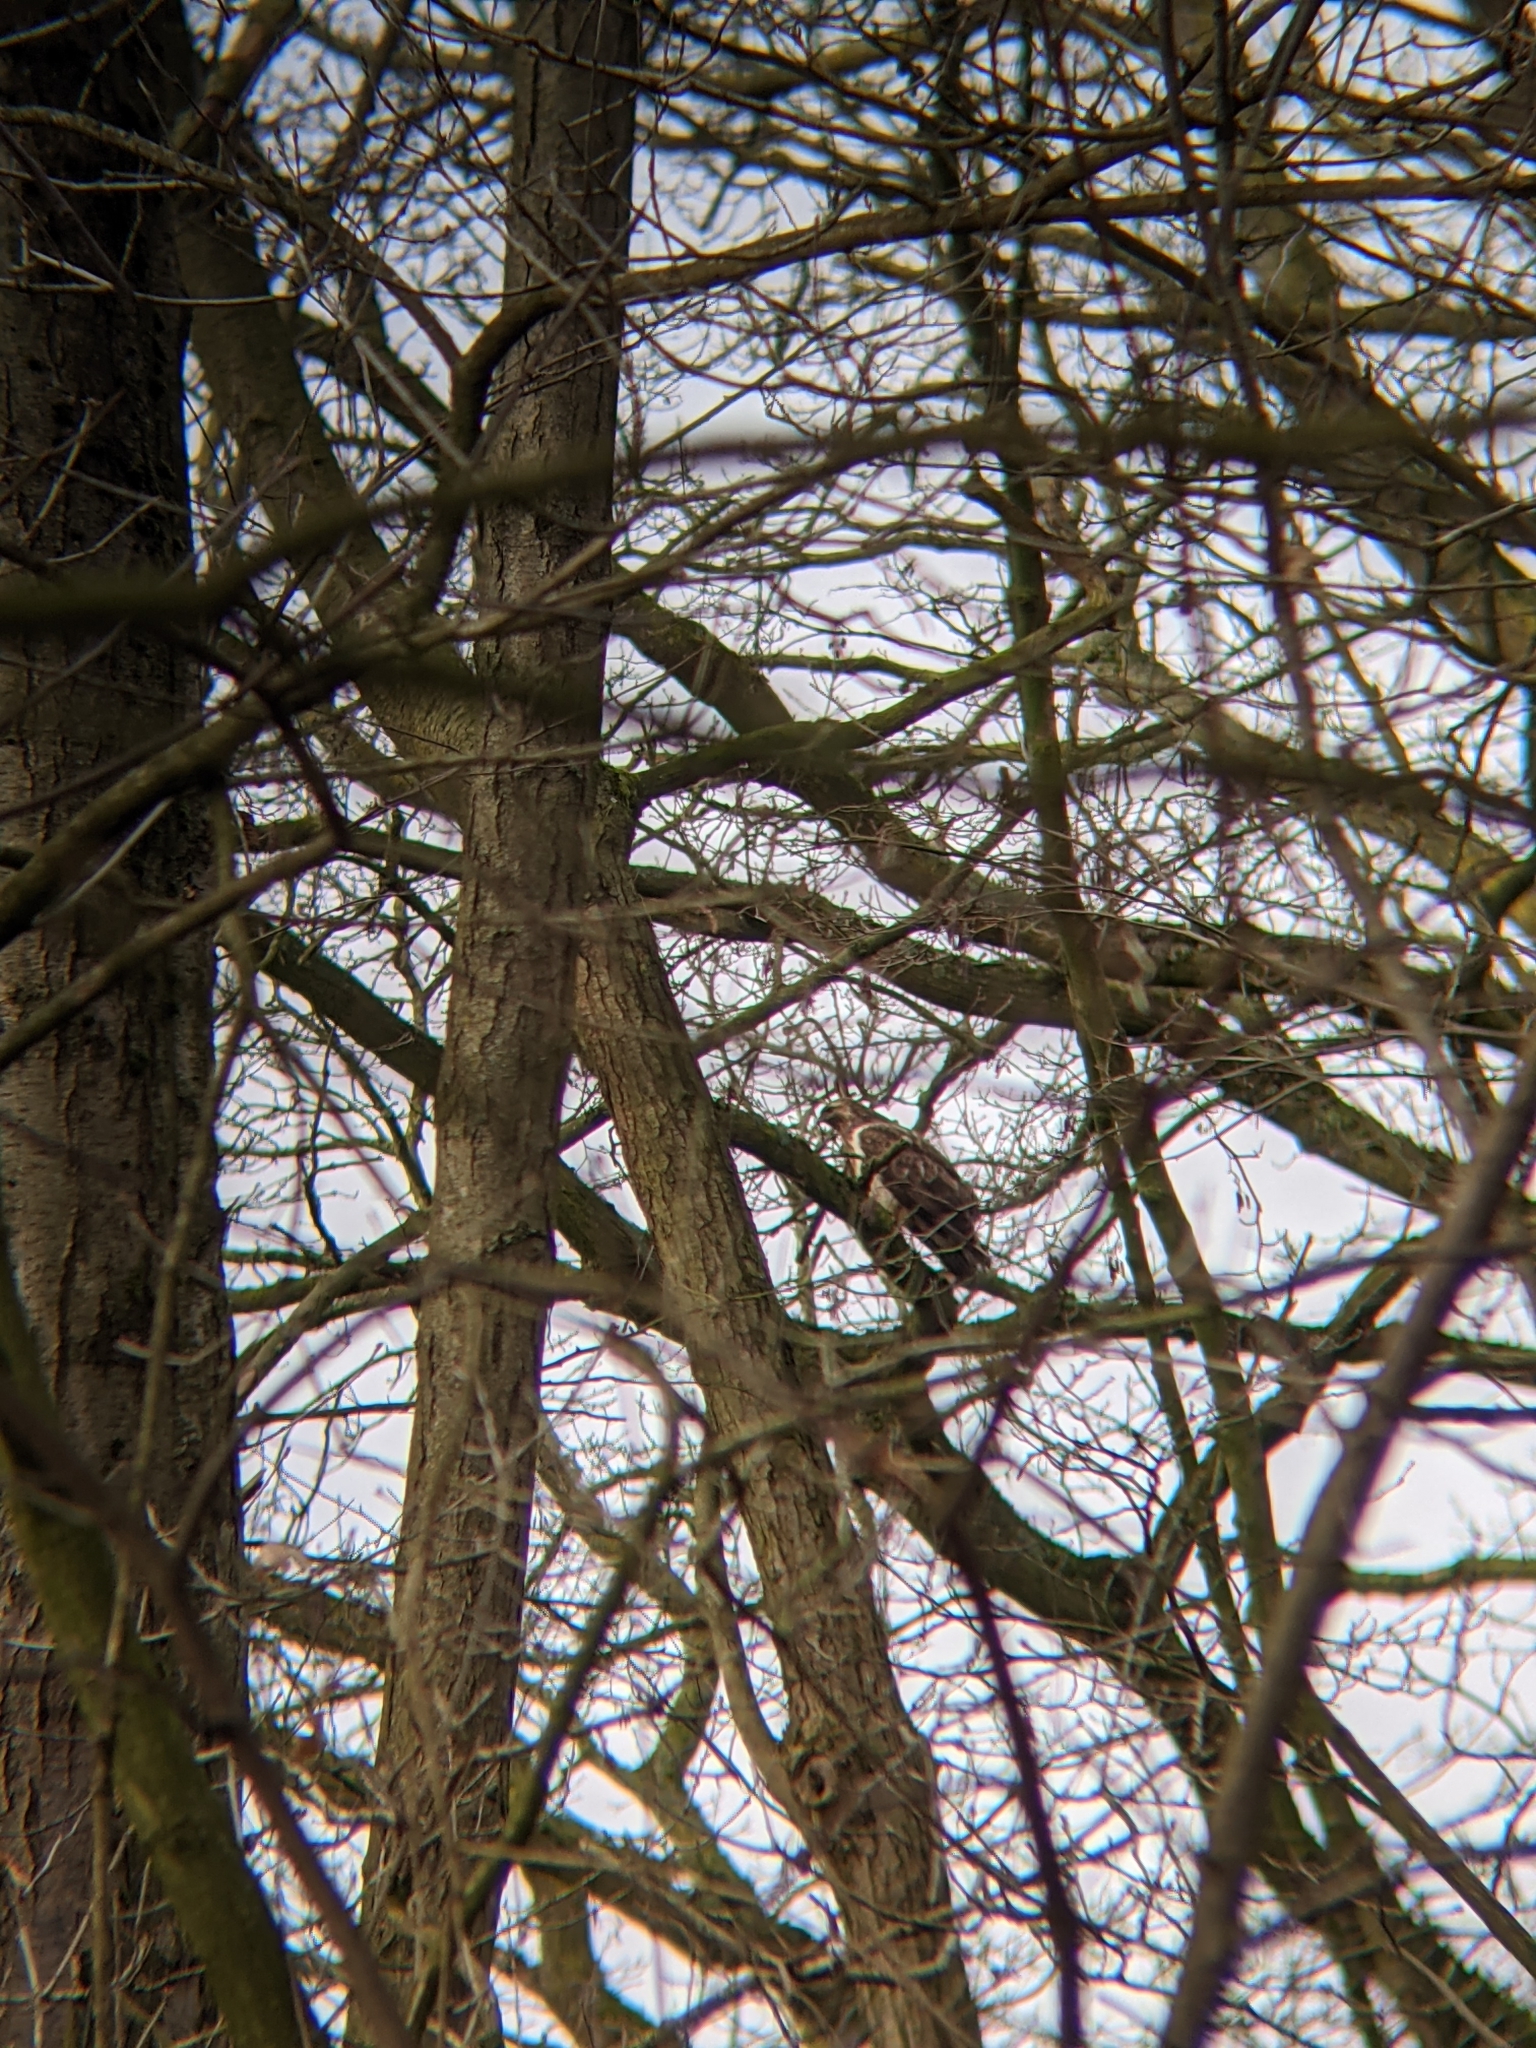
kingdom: Animalia
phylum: Chordata
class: Aves
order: Accipitriformes
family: Accipitridae
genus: Buteo
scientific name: Buteo buteo
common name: Common buzzard
